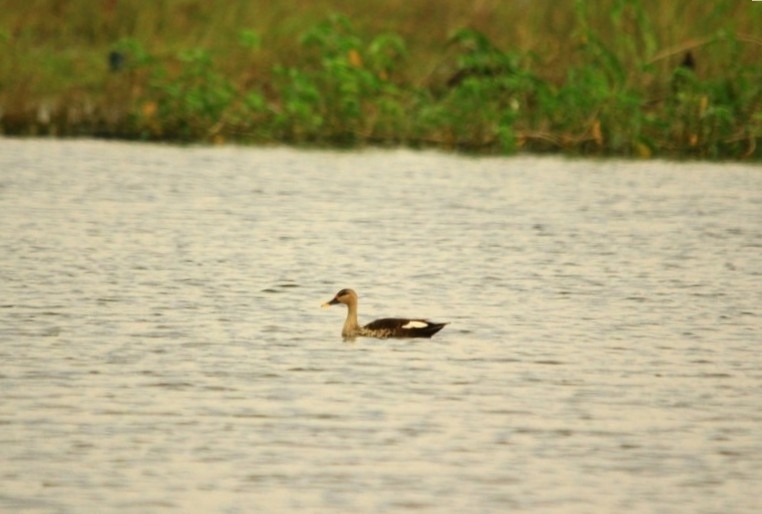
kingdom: Animalia
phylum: Chordata
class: Aves
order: Anseriformes
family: Anatidae
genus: Anas
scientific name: Anas poecilorhyncha
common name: Indian spot-billed duck
